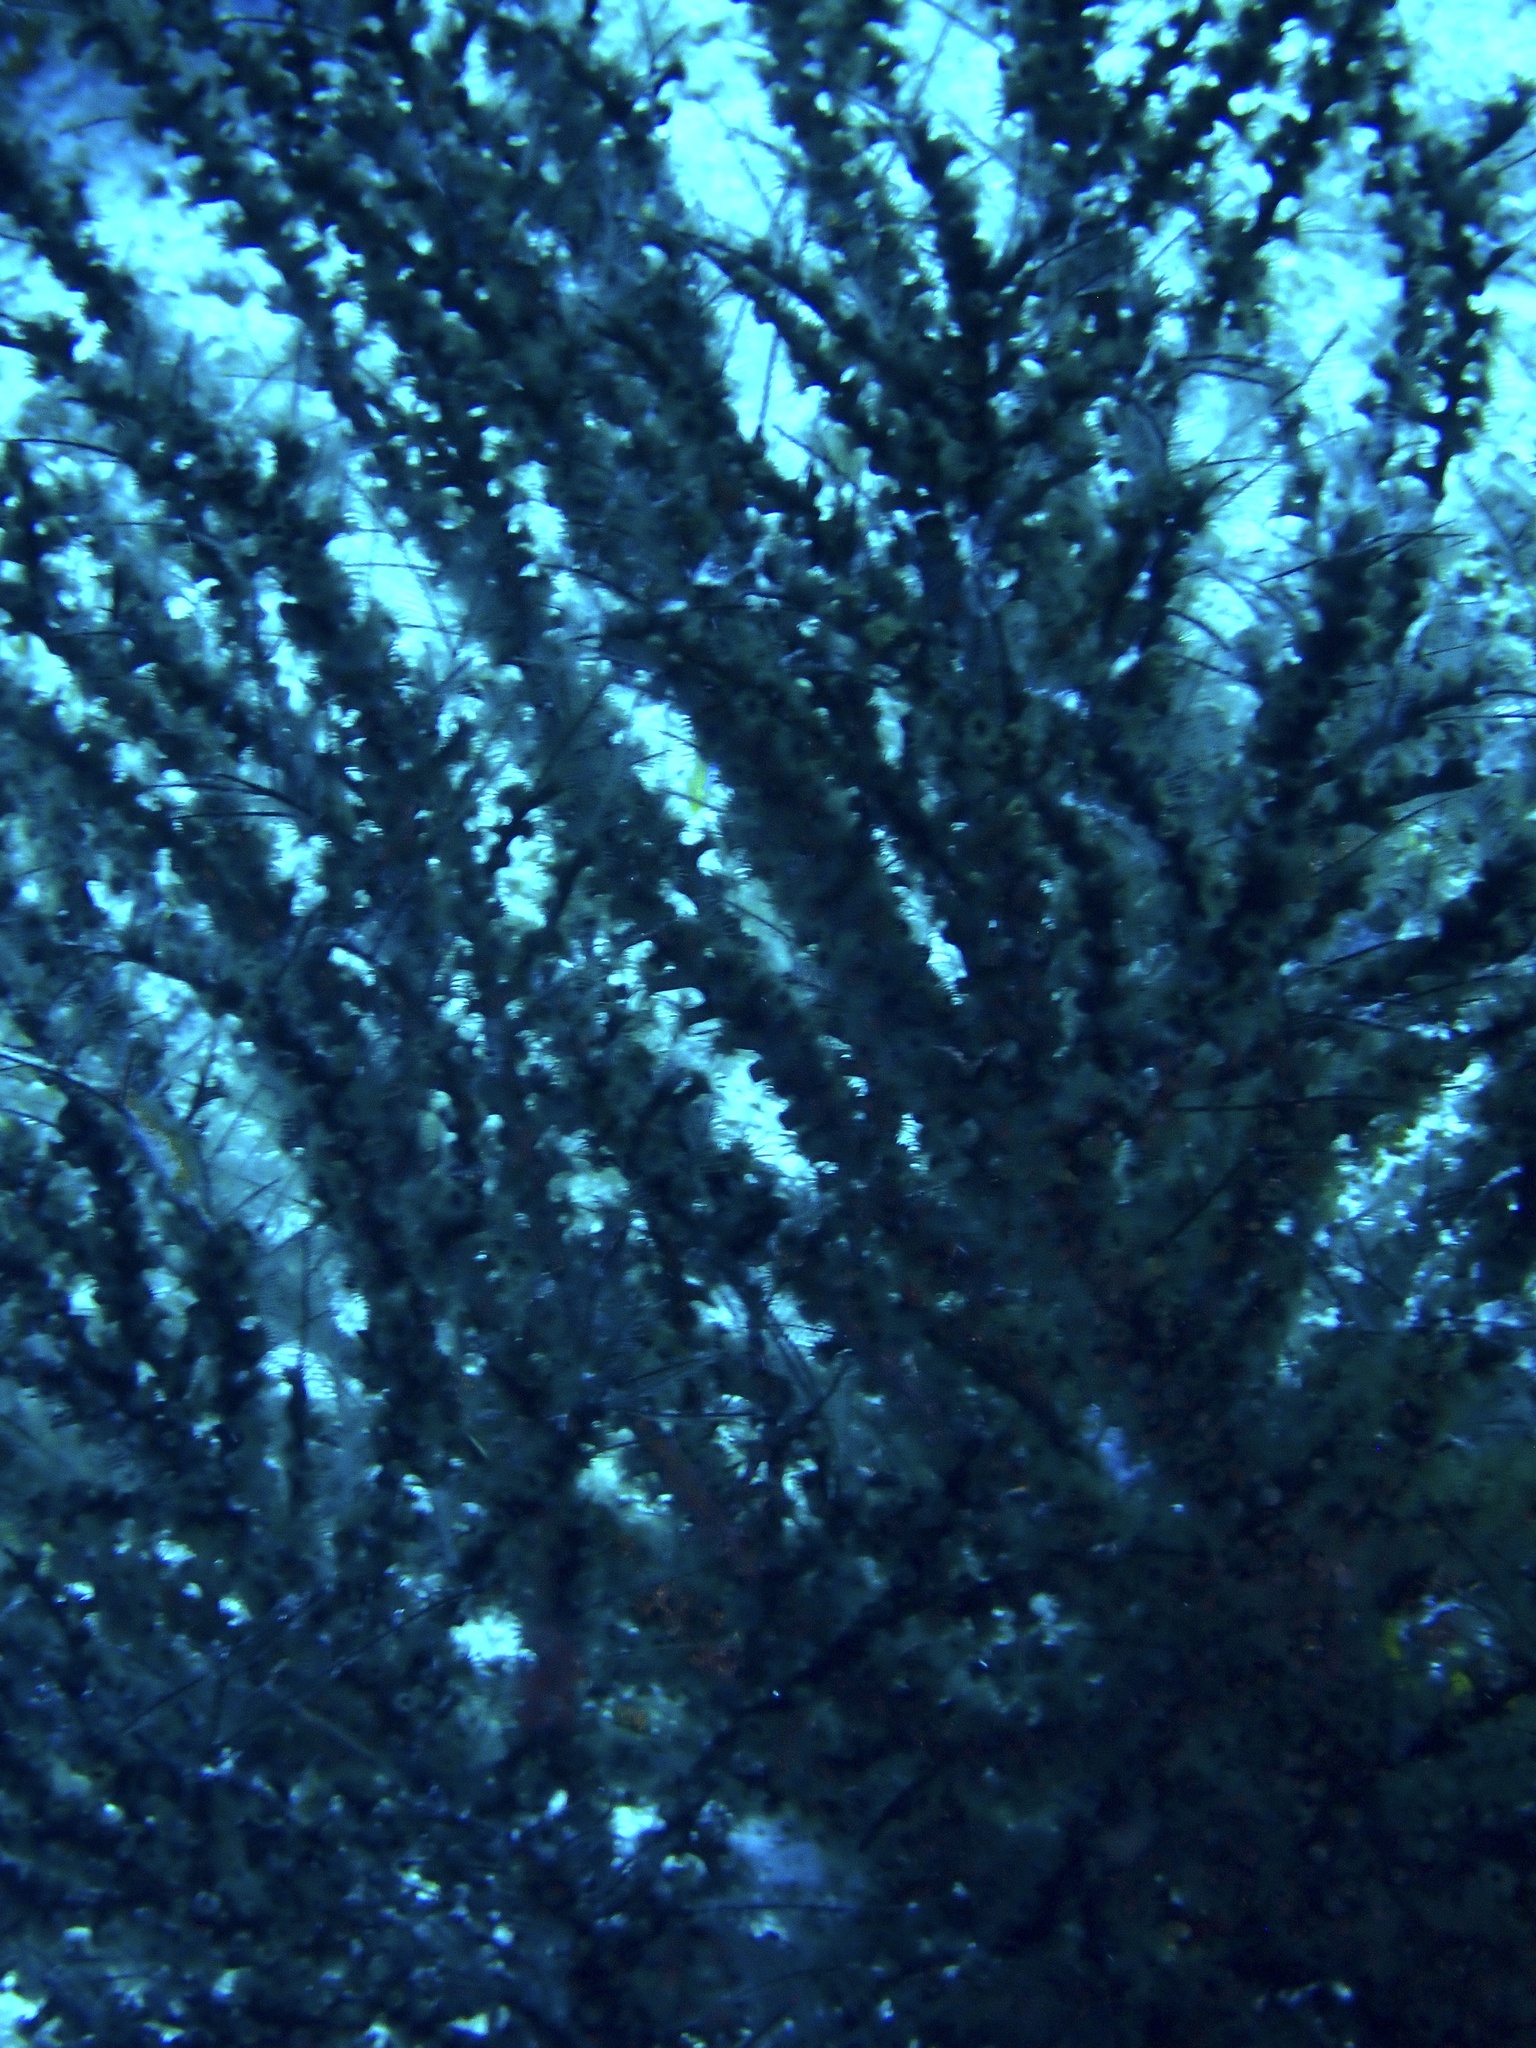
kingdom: Animalia
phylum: Cnidaria
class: Anthozoa
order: Zoantharia
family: Hydrozoanthidae
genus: Hydrozoanthus
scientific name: Hydrozoanthus antumbrosus
